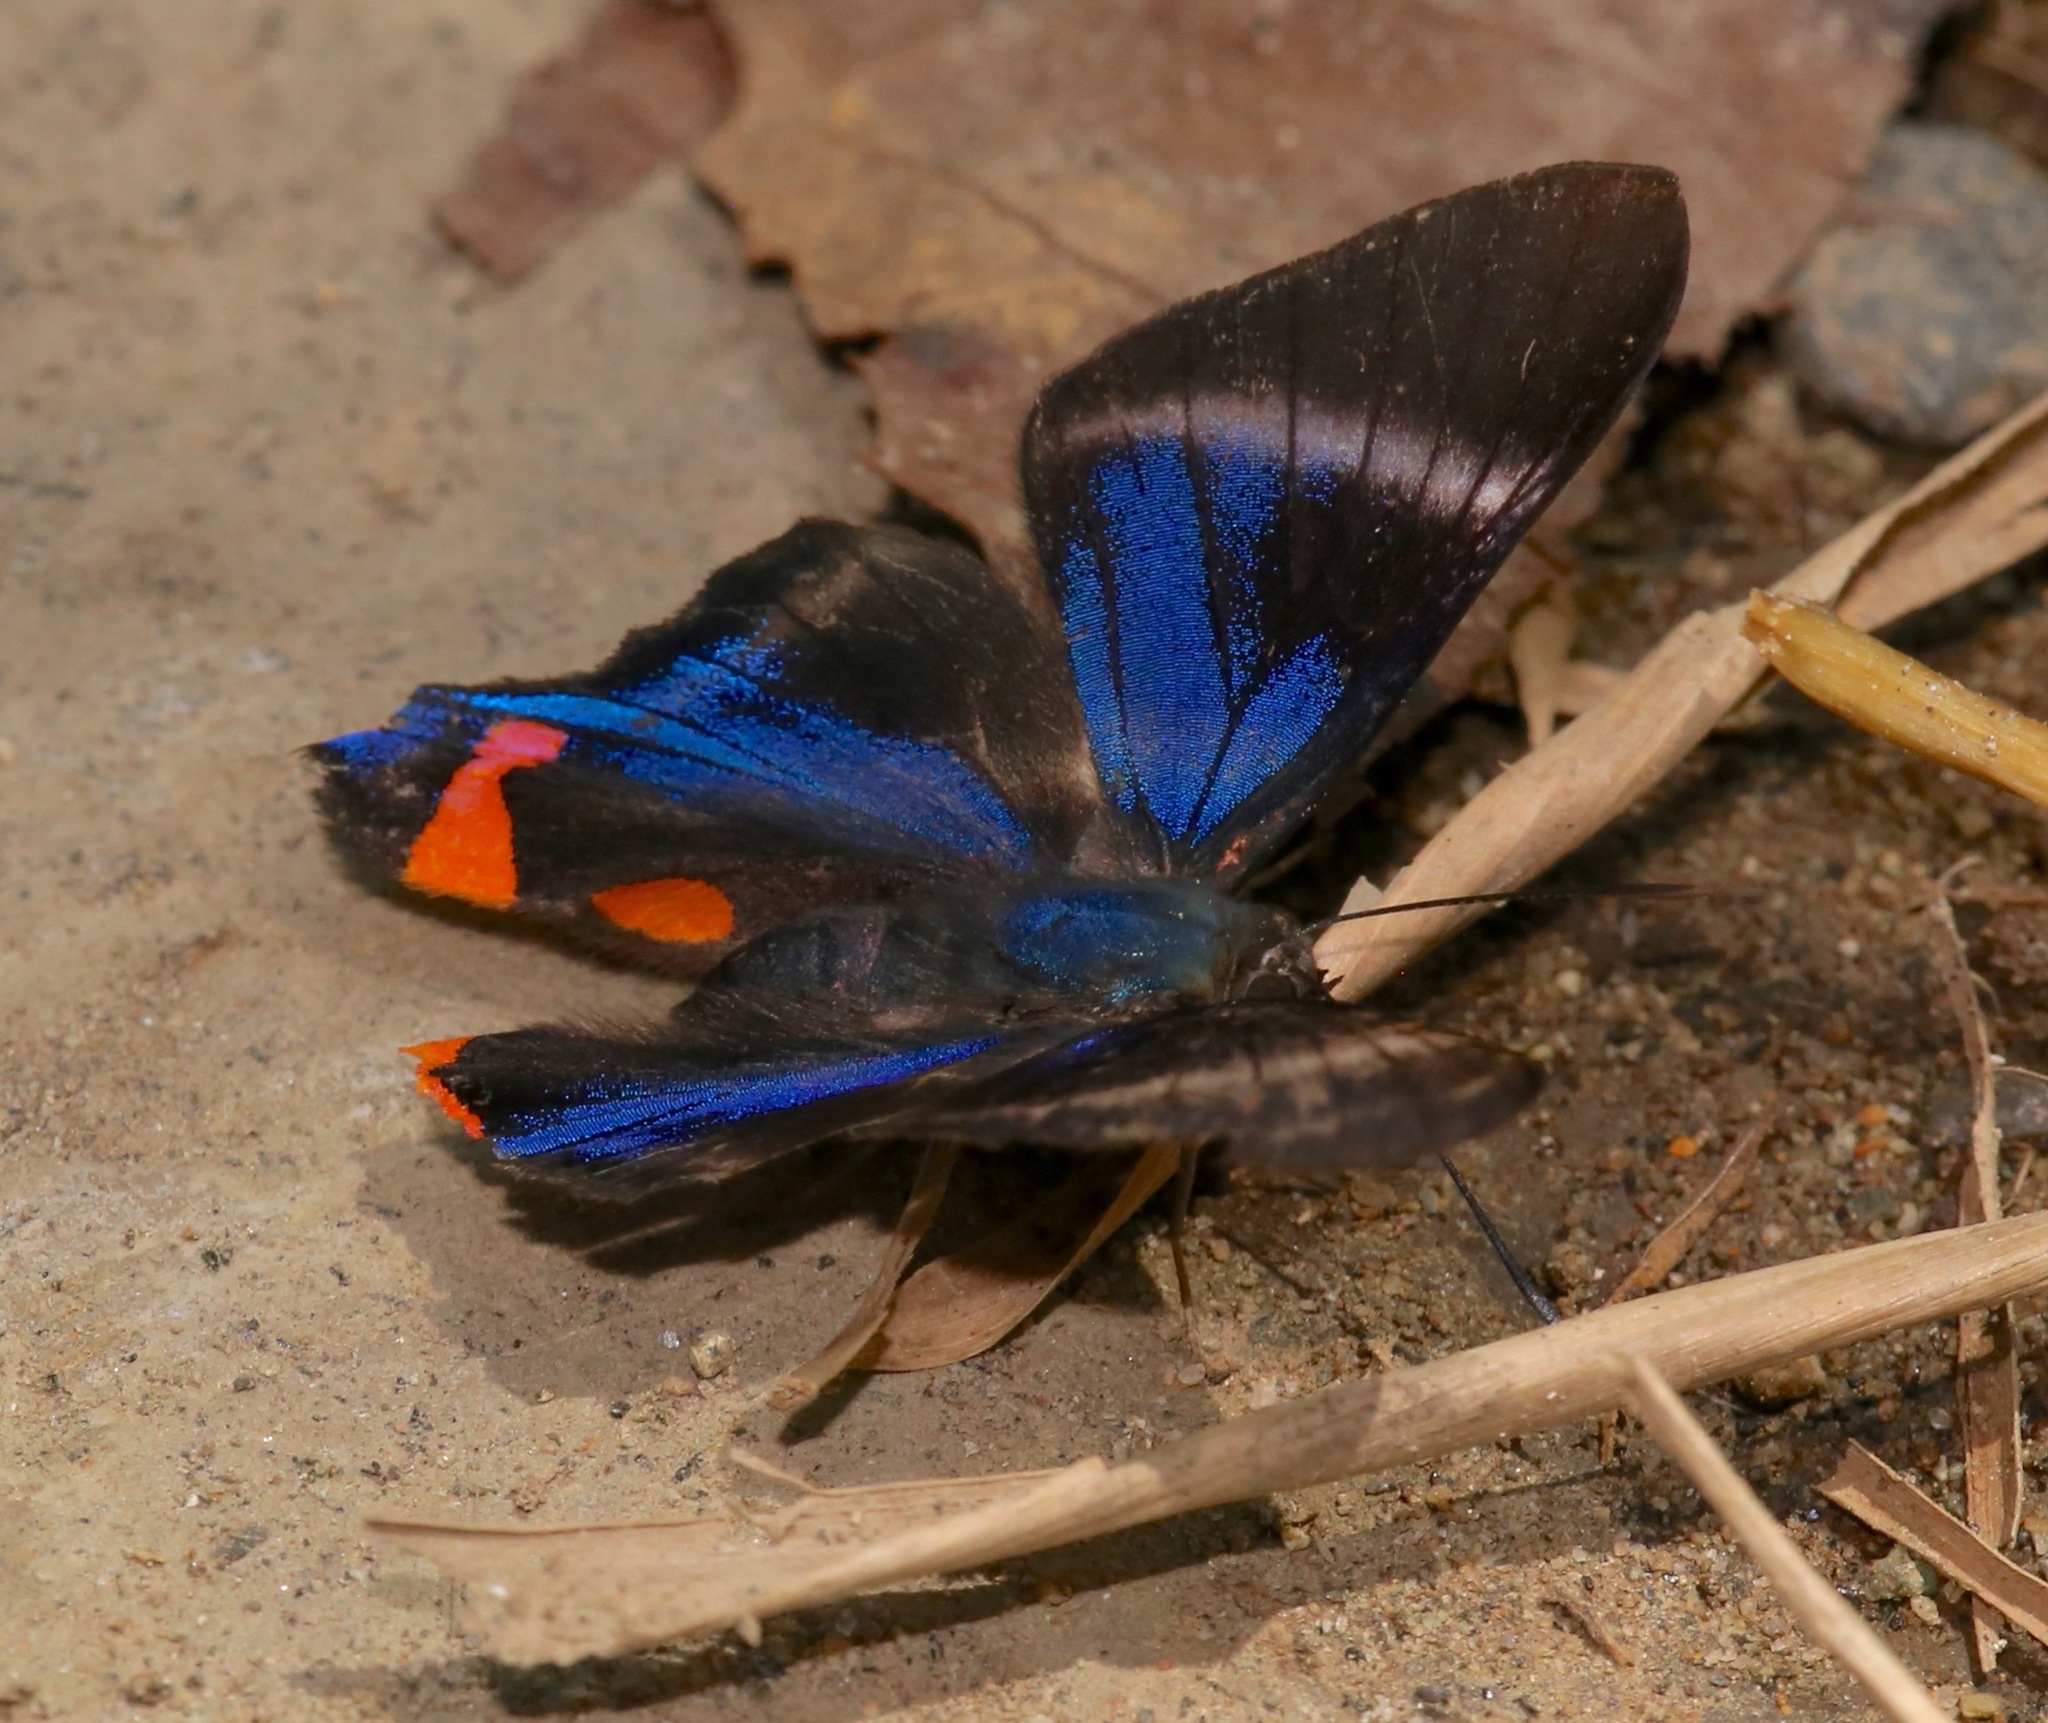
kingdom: Animalia
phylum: Arthropoda
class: Insecta
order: Lepidoptera
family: Riodinidae
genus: Rhetus
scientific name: Rhetus periander
